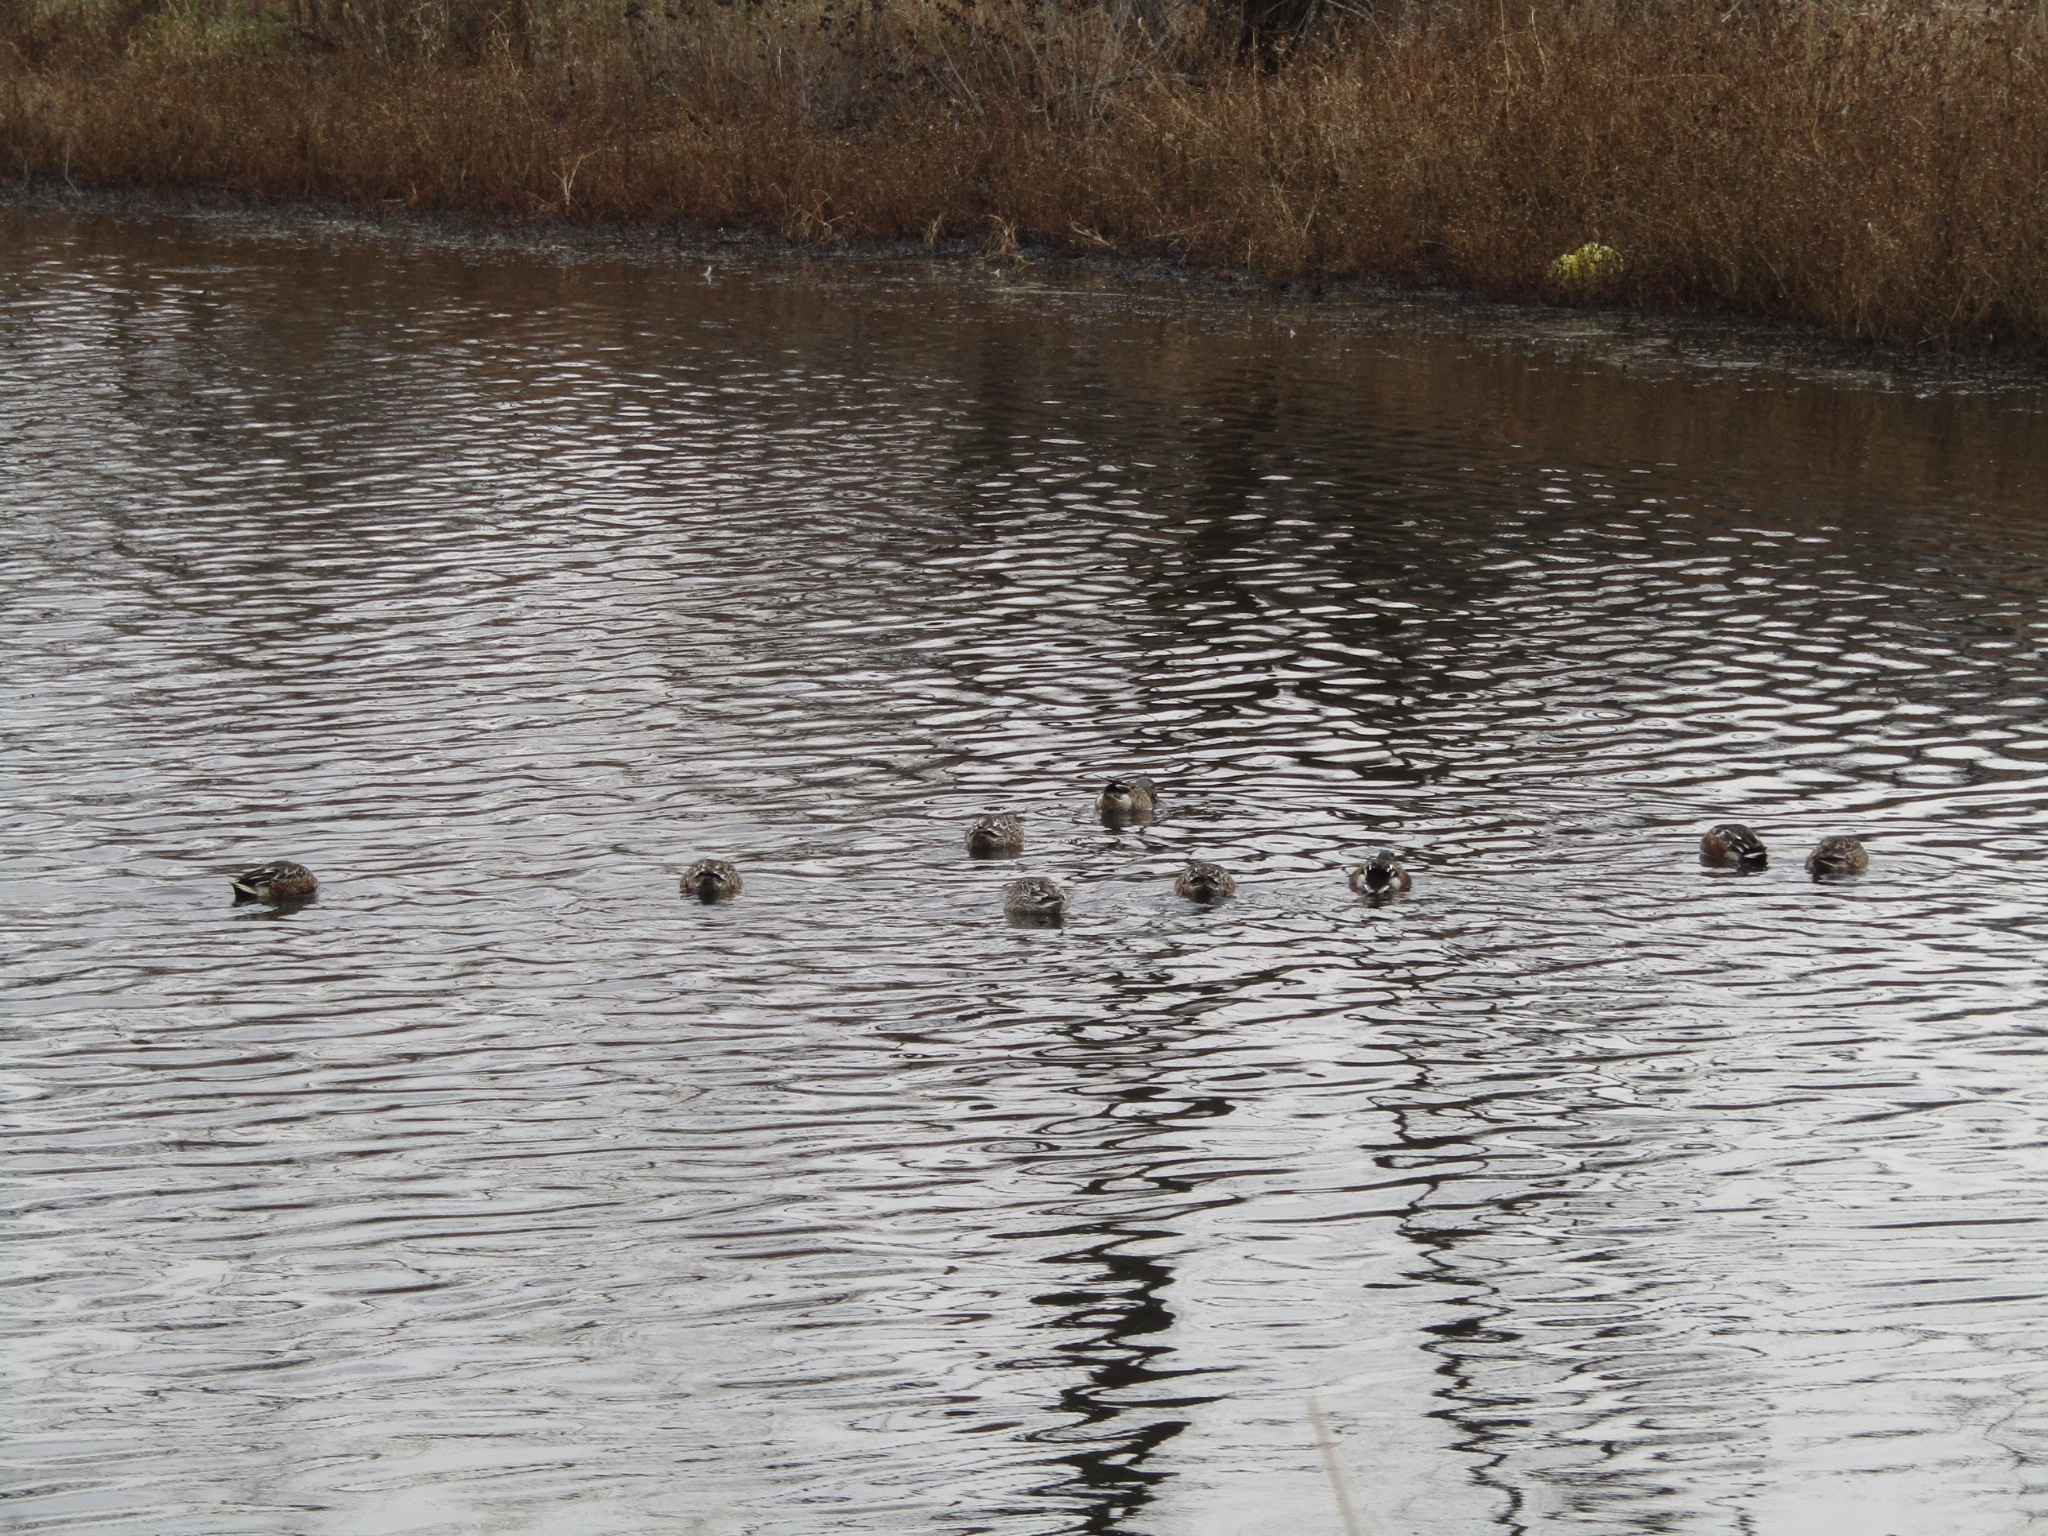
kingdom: Animalia
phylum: Chordata
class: Aves
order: Anseriformes
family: Anatidae
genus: Spatula
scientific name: Spatula clypeata
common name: Northern shoveler
